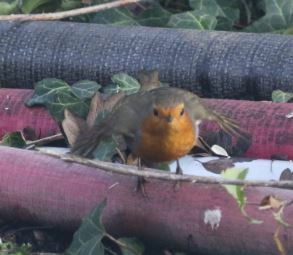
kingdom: Animalia
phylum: Chordata
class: Aves
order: Passeriformes
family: Muscicapidae
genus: Erithacus
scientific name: Erithacus rubecula
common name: European robin
